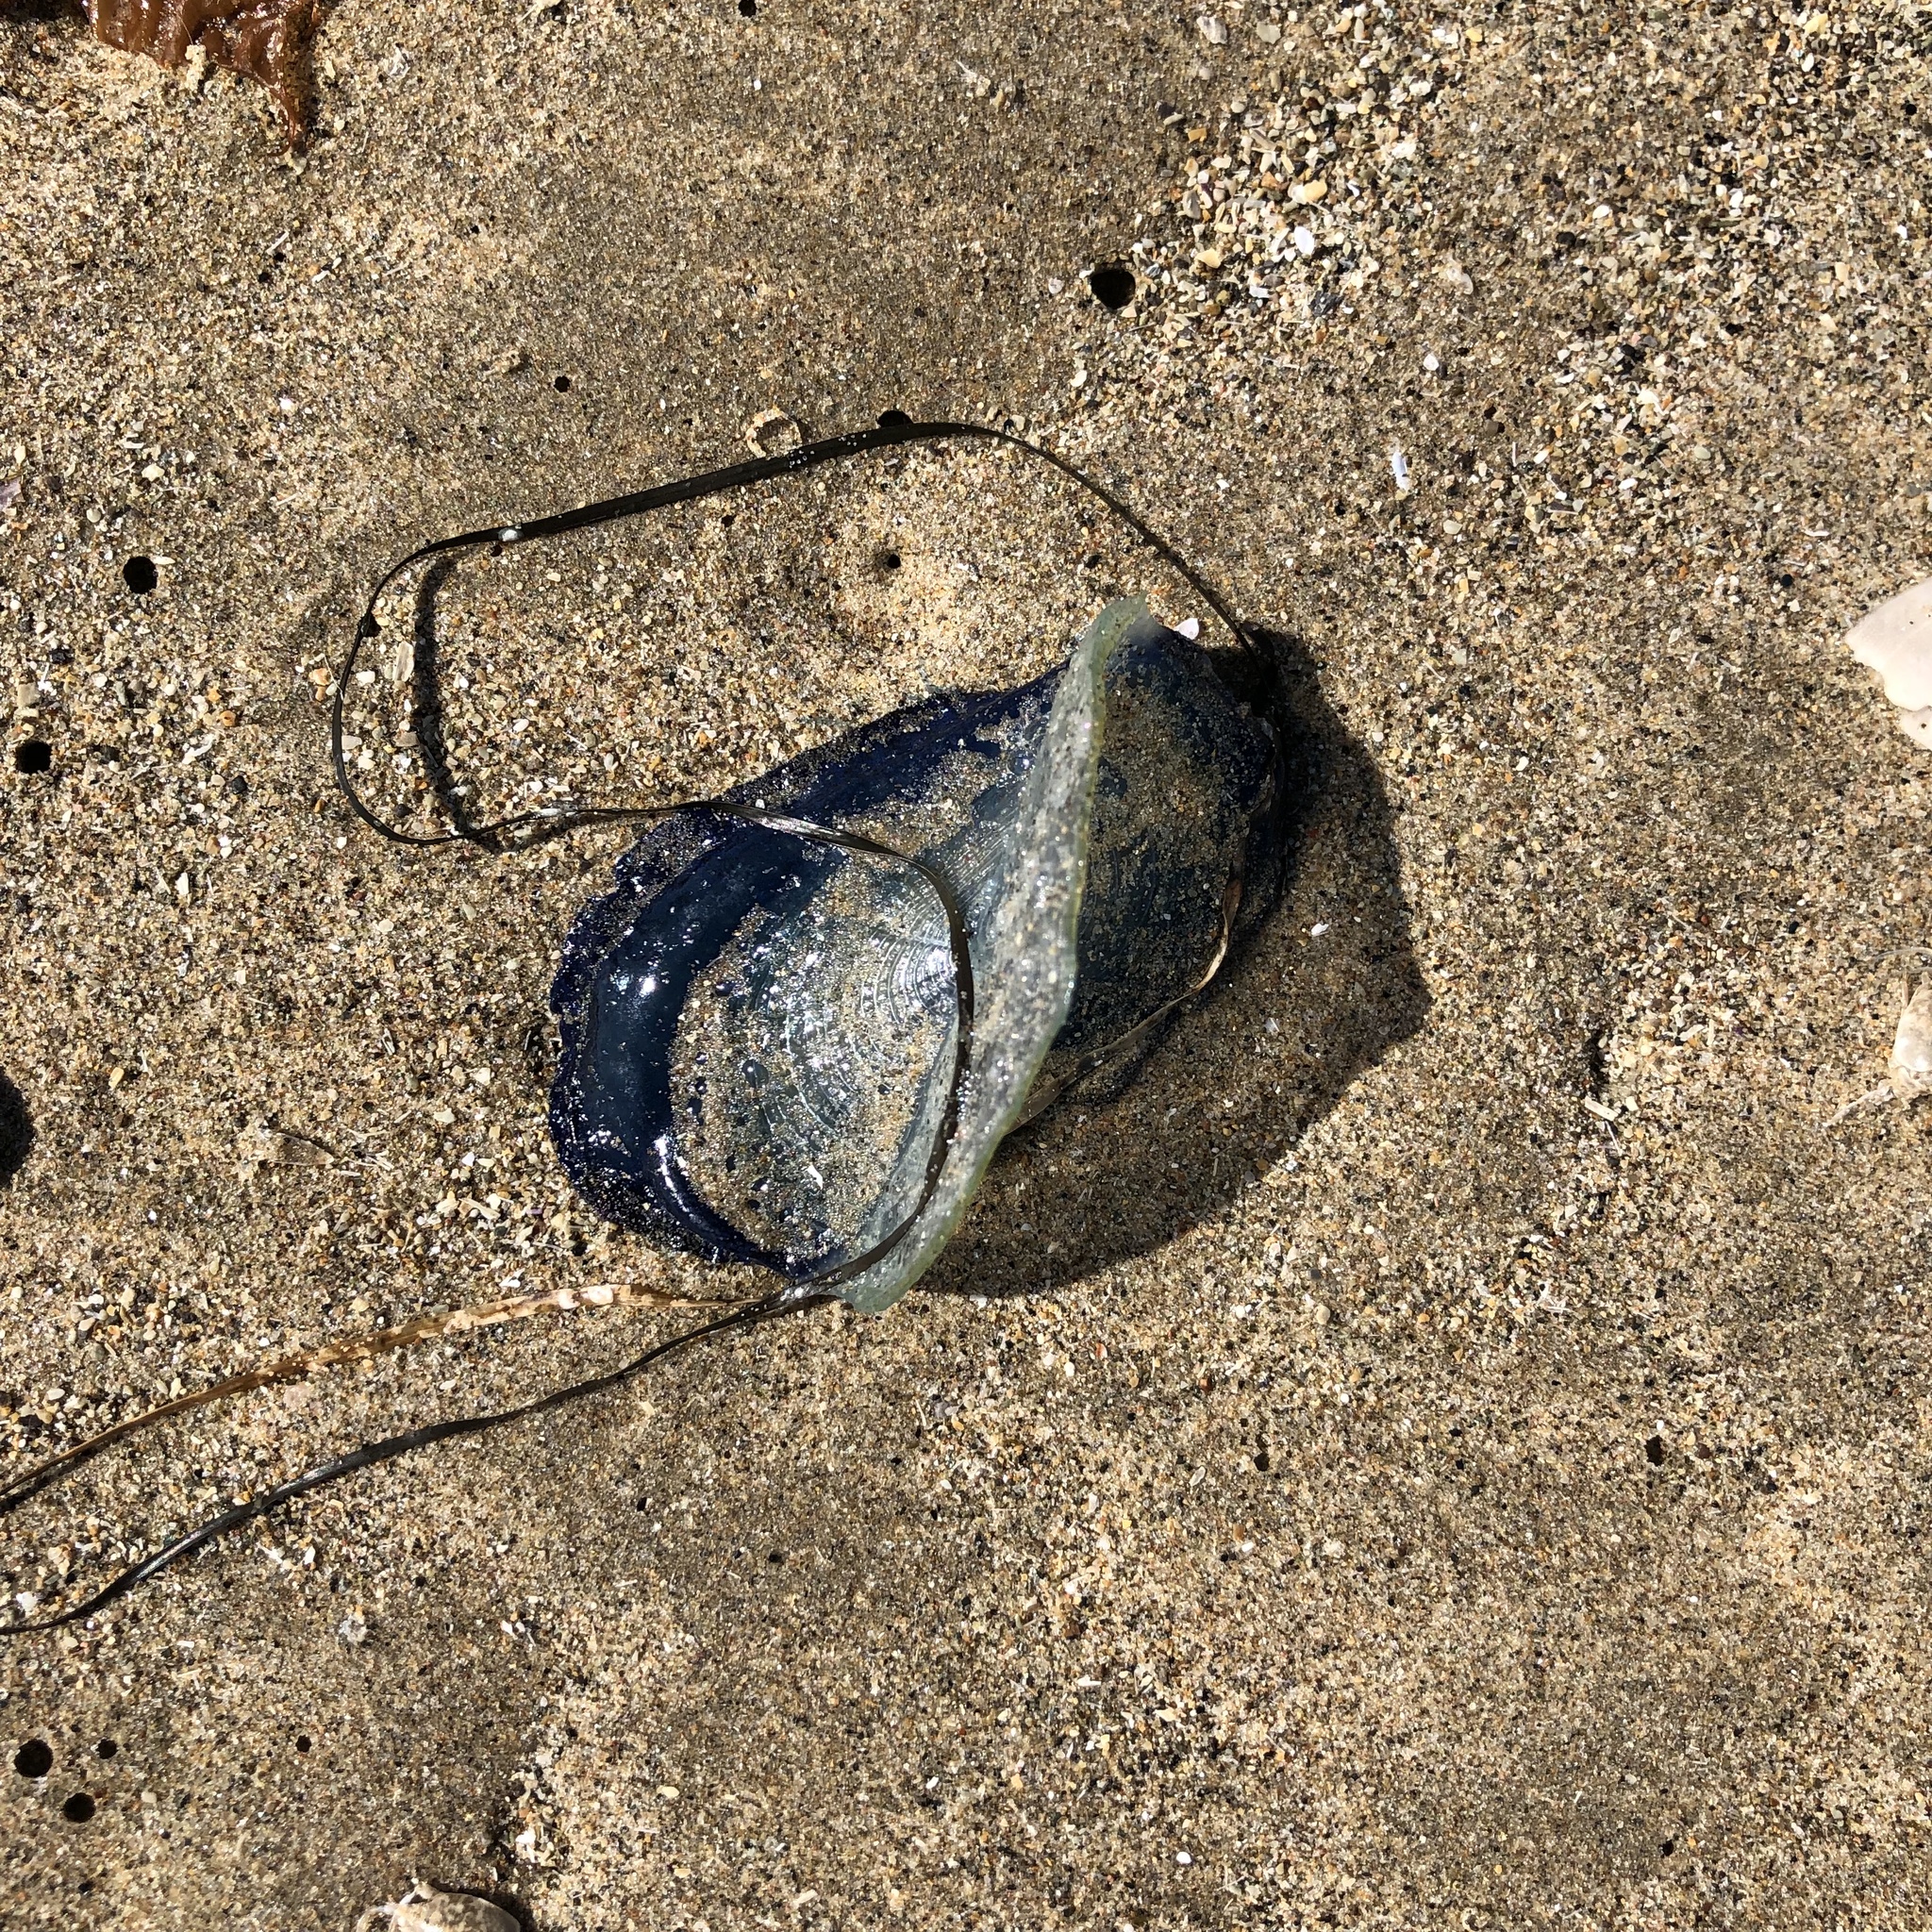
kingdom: Animalia
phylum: Cnidaria
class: Hydrozoa
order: Anthoathecata
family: Porpitidae
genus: Velella
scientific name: Velella velella
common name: By-the-wind-sailor
